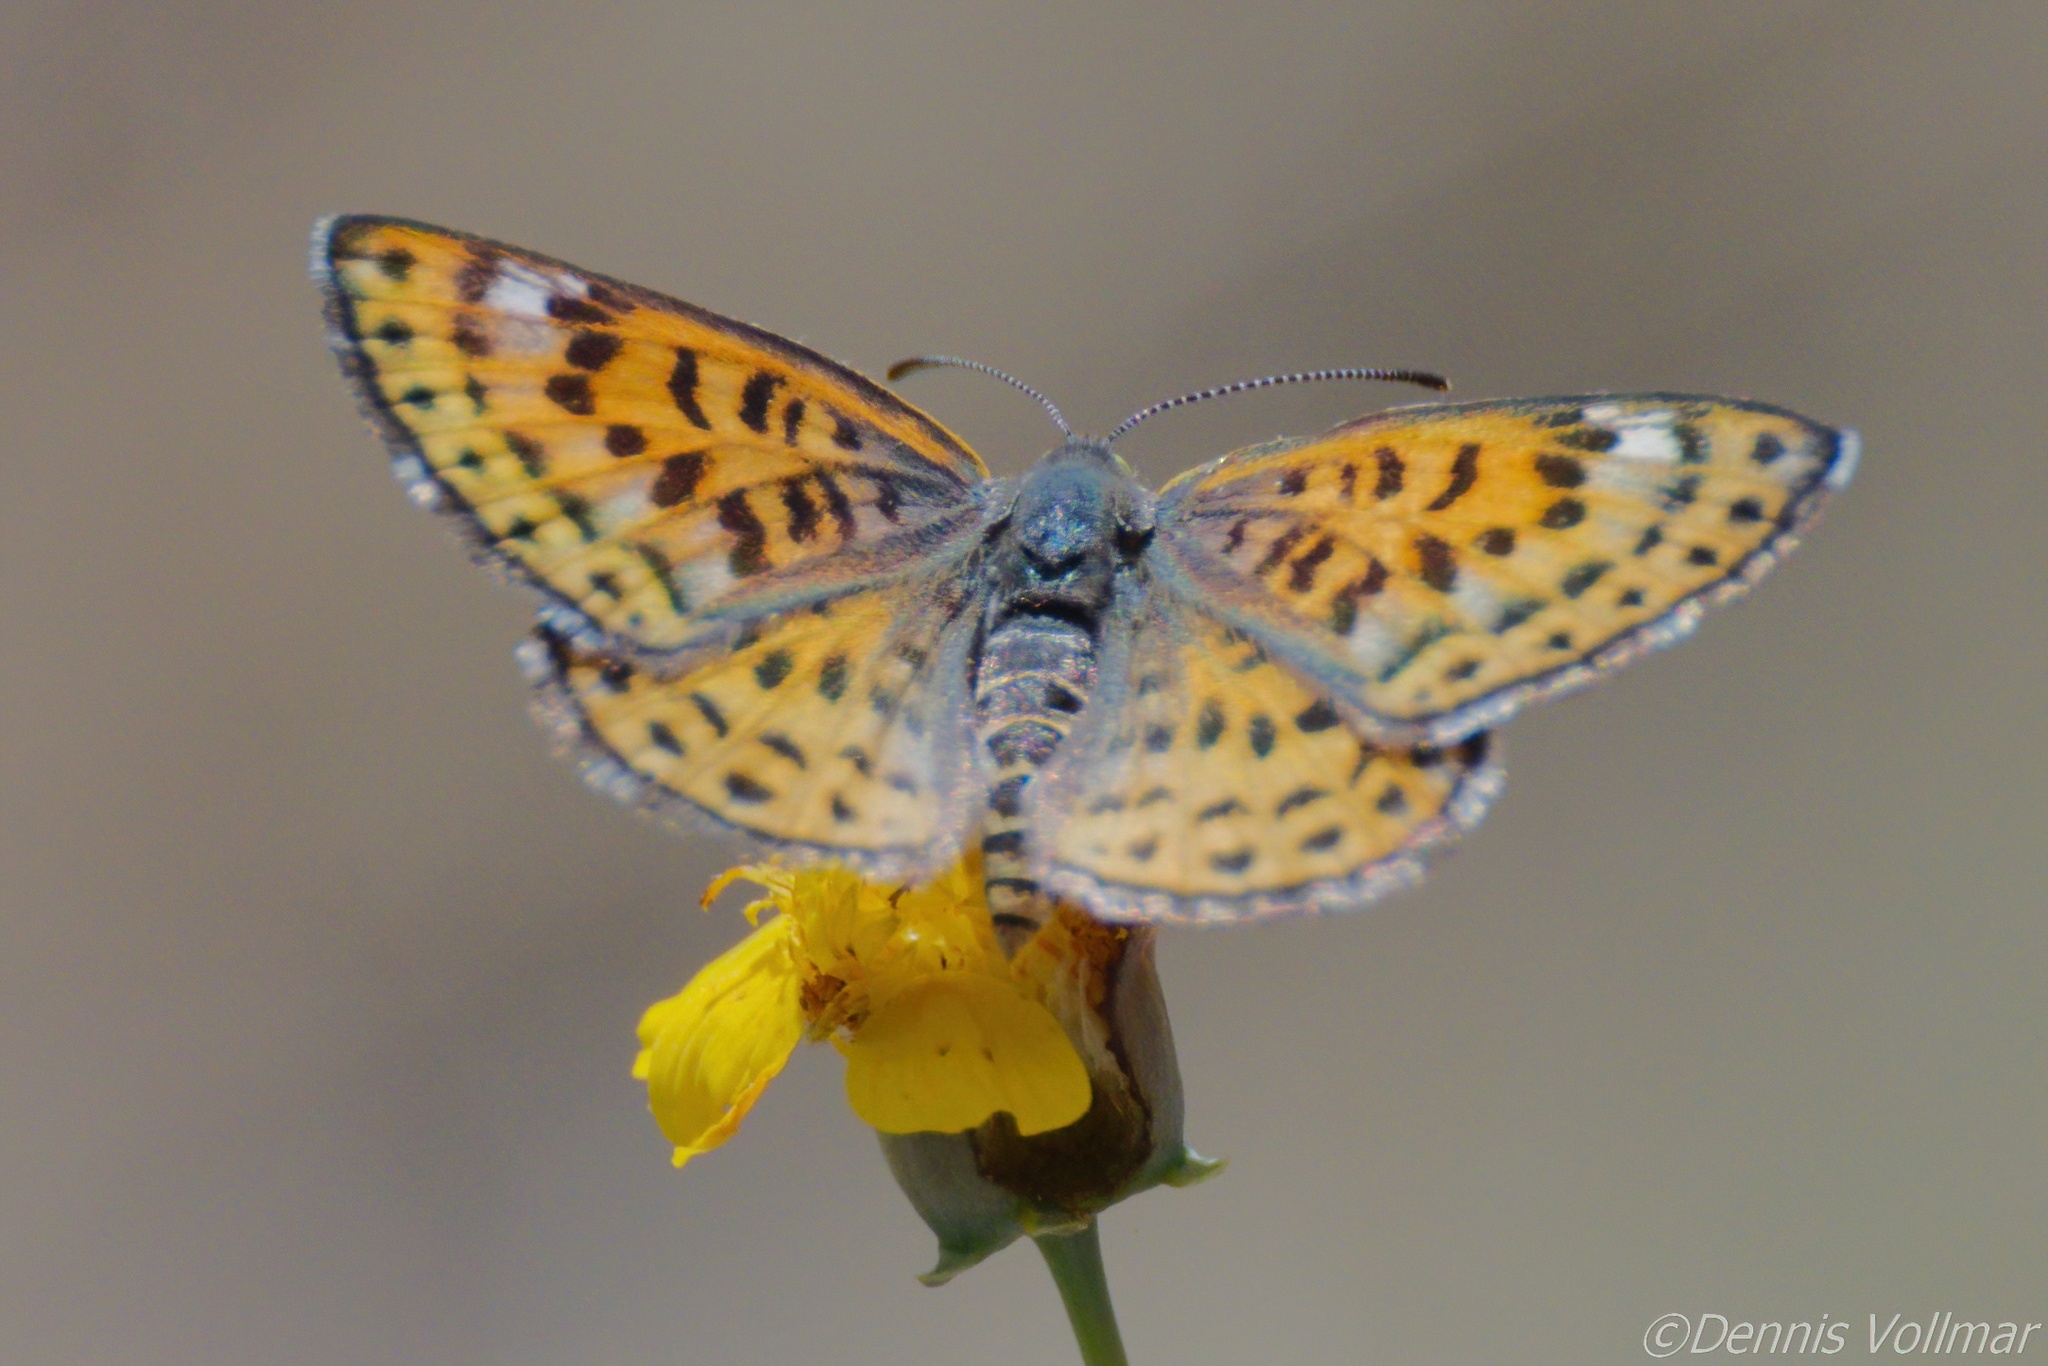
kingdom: Animalia
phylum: Arthropoda
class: Insecta
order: Lepidoptera
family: Riodinidae
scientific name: Riodinidae
